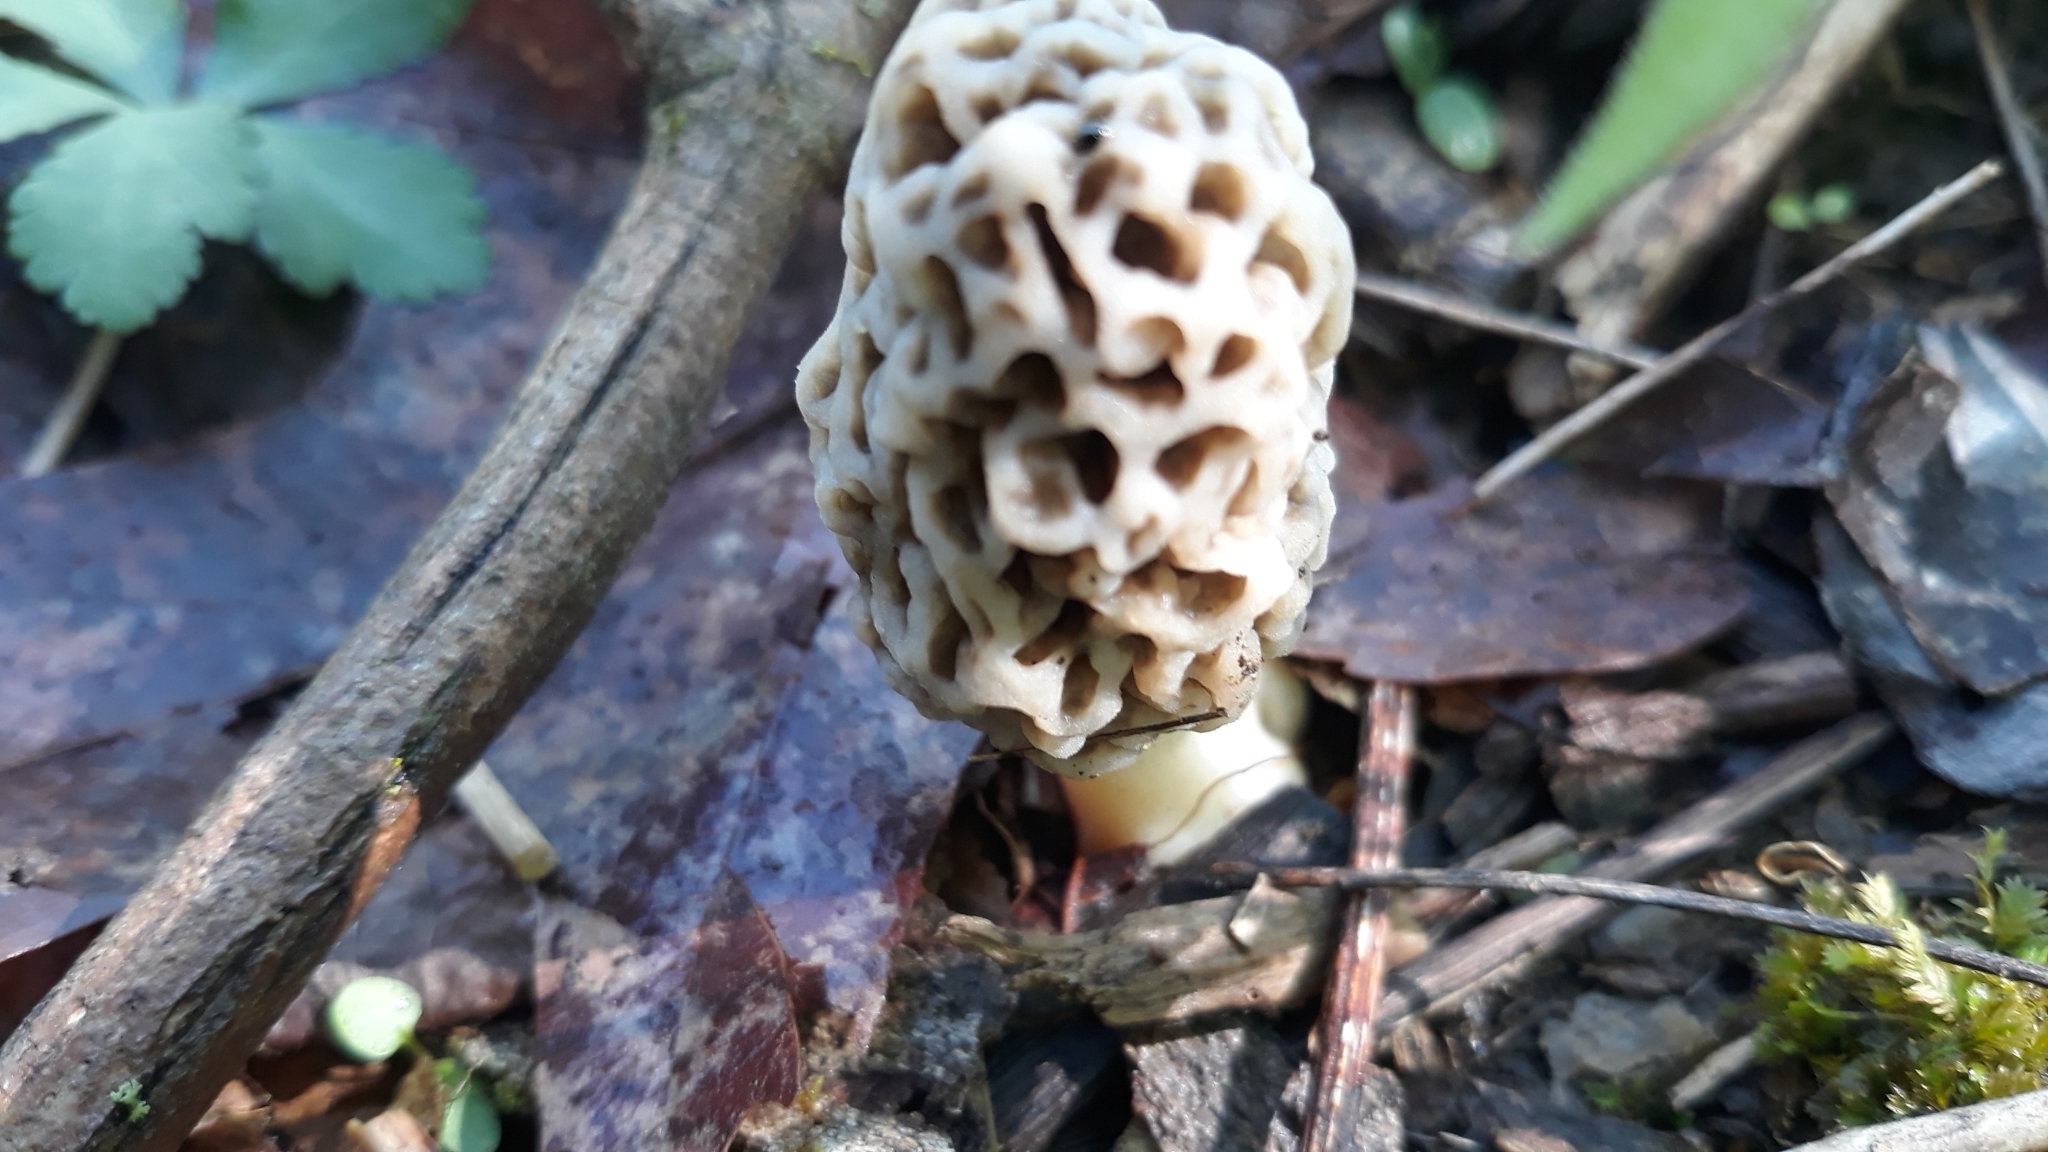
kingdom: Fungi
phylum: Ascomycota
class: Pezizomycetes
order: Pezizales
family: Morchellaceae
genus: Morchella
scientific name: Morchella americana
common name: White morel
